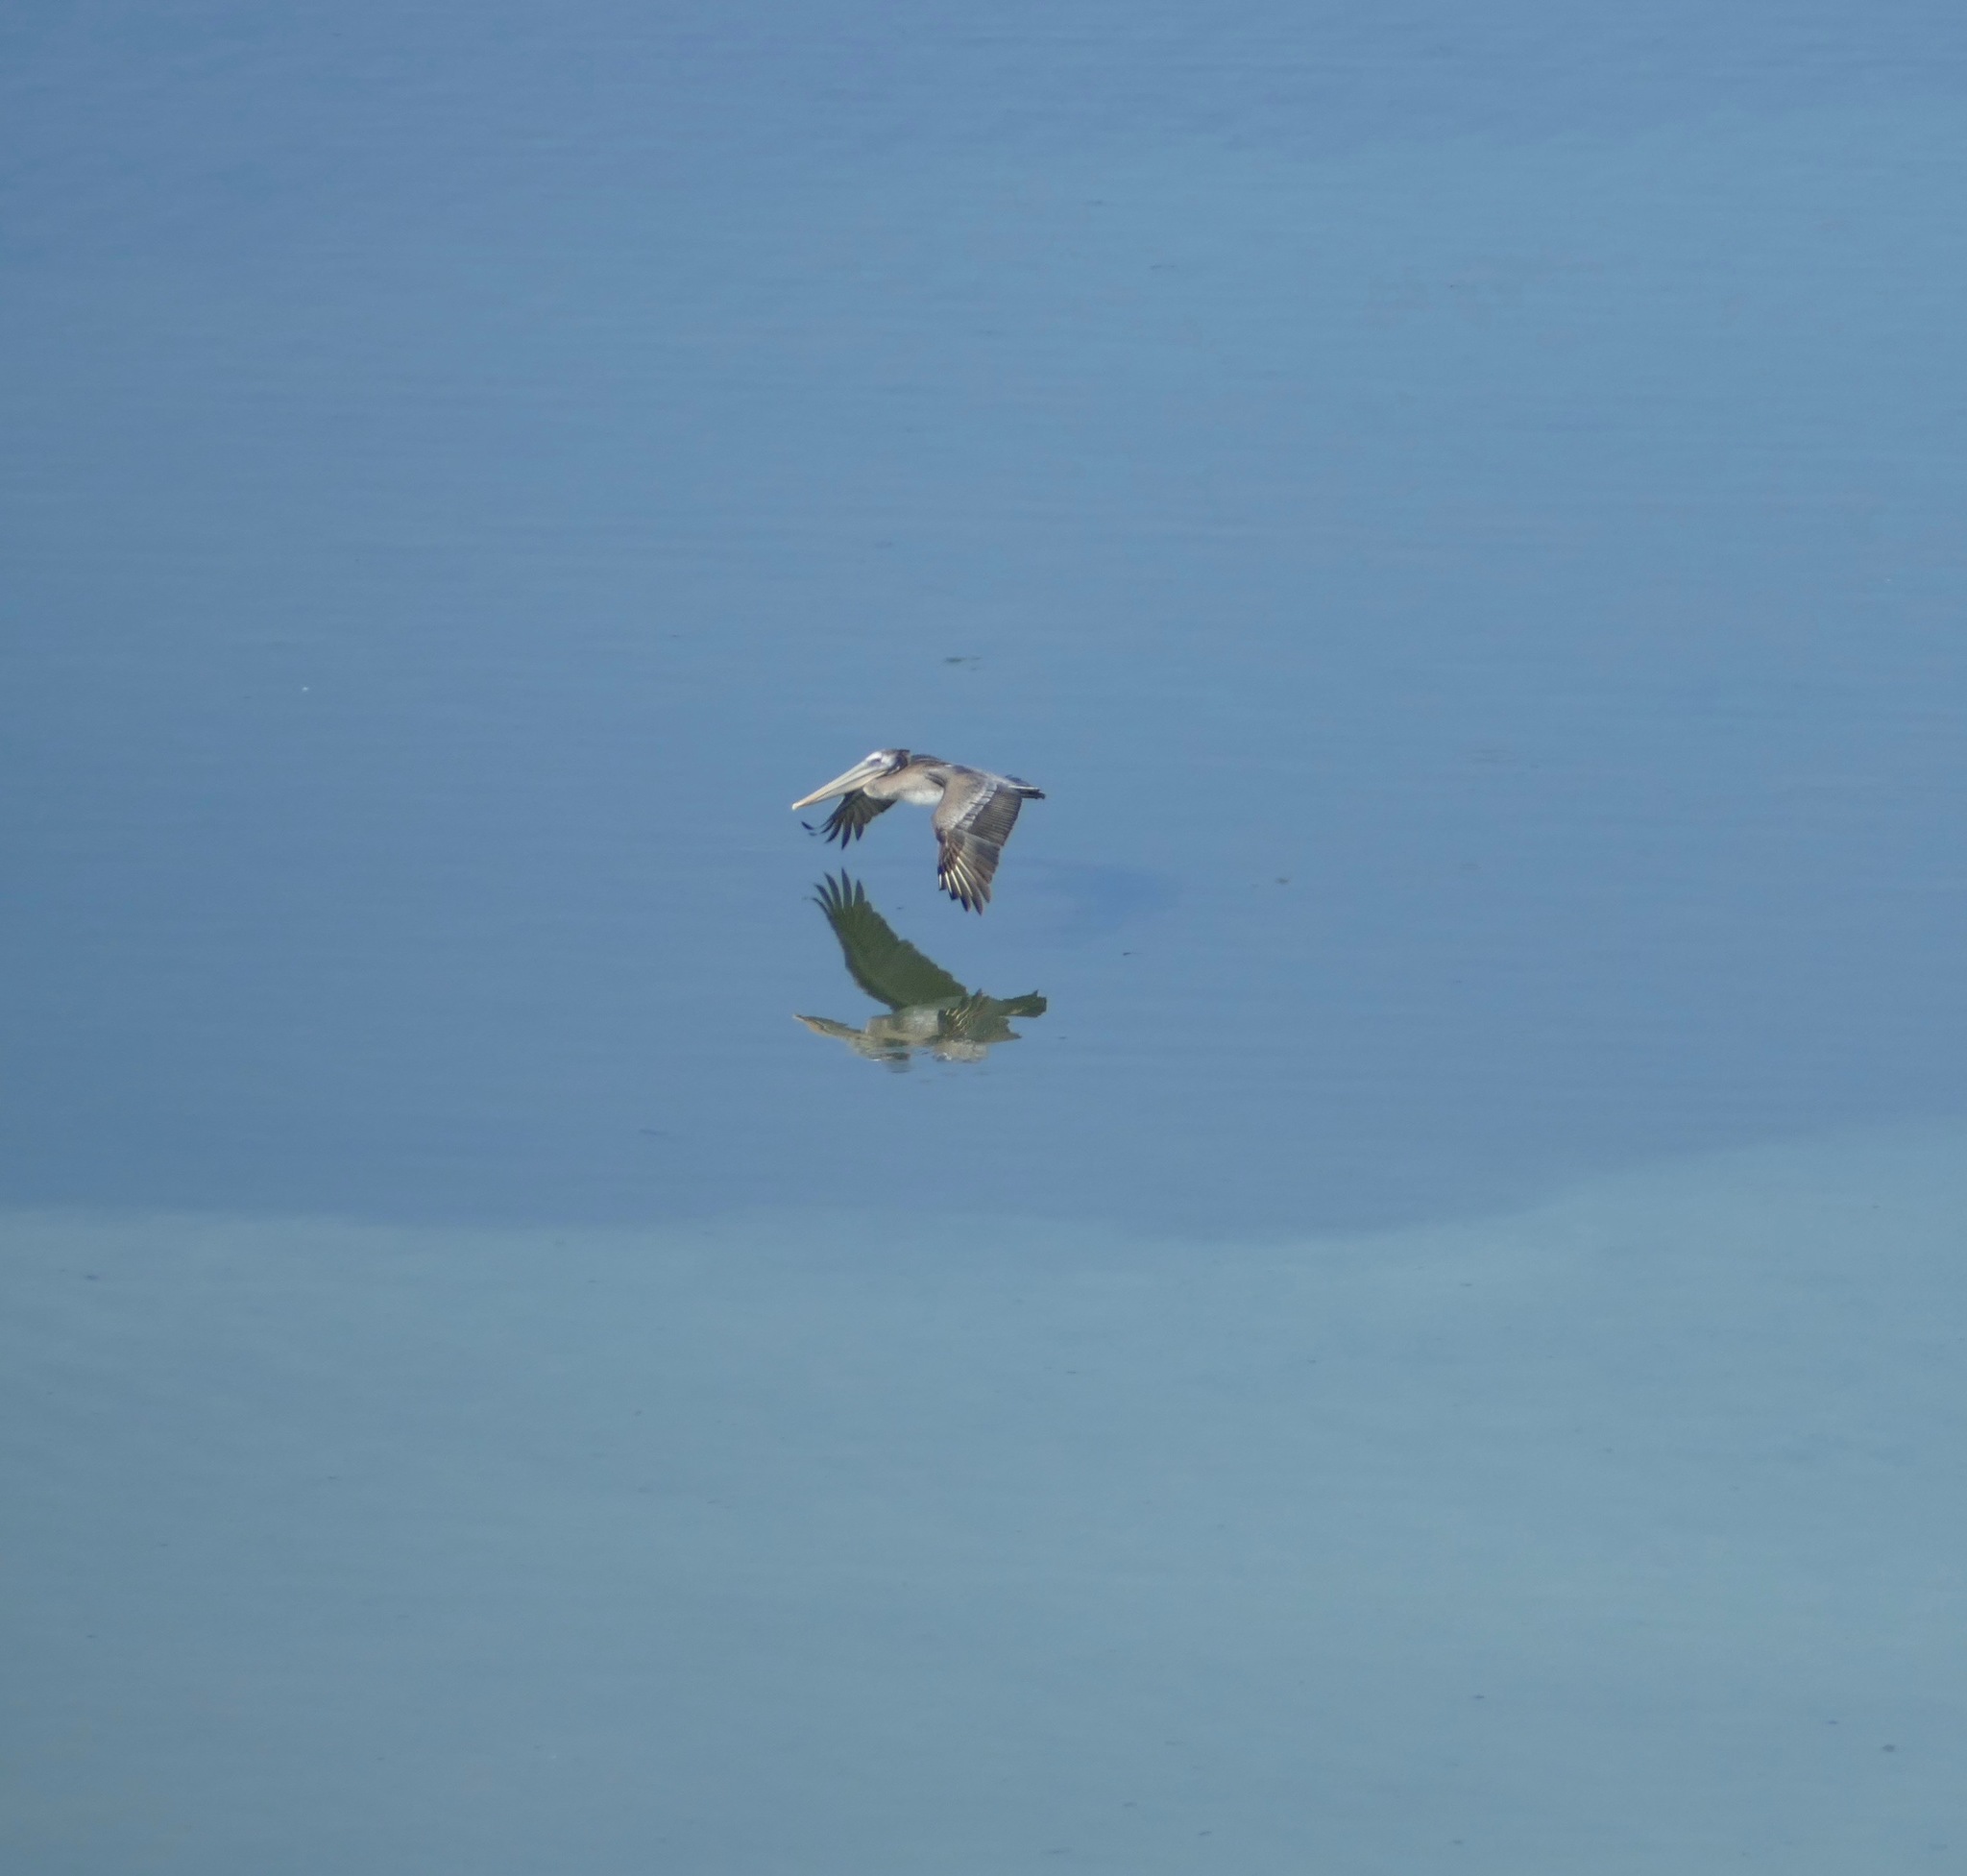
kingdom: Animalia
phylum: Chordata
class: Aves
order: Pelecaniformes
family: Pelecanidae
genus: Pelecanus
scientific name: Pelecanus occidentalis
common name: Brown pelican
